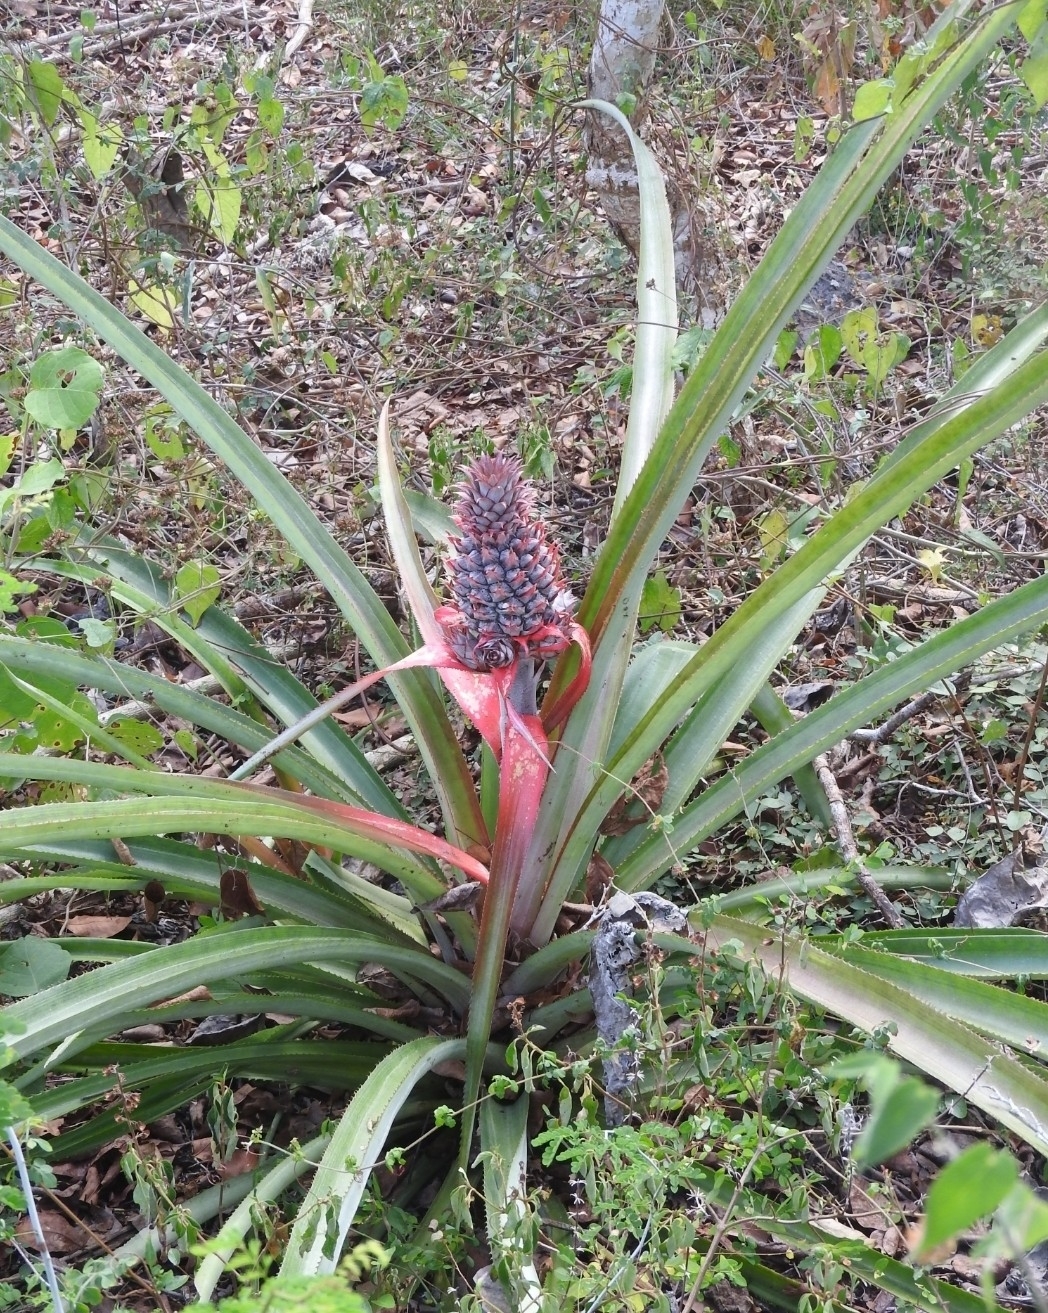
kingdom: Plantae
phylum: Tracheophyta
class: Liliopsida
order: Poales
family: Bromeliaceae
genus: Ananas
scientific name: Ananas comosus
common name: Pineapple
